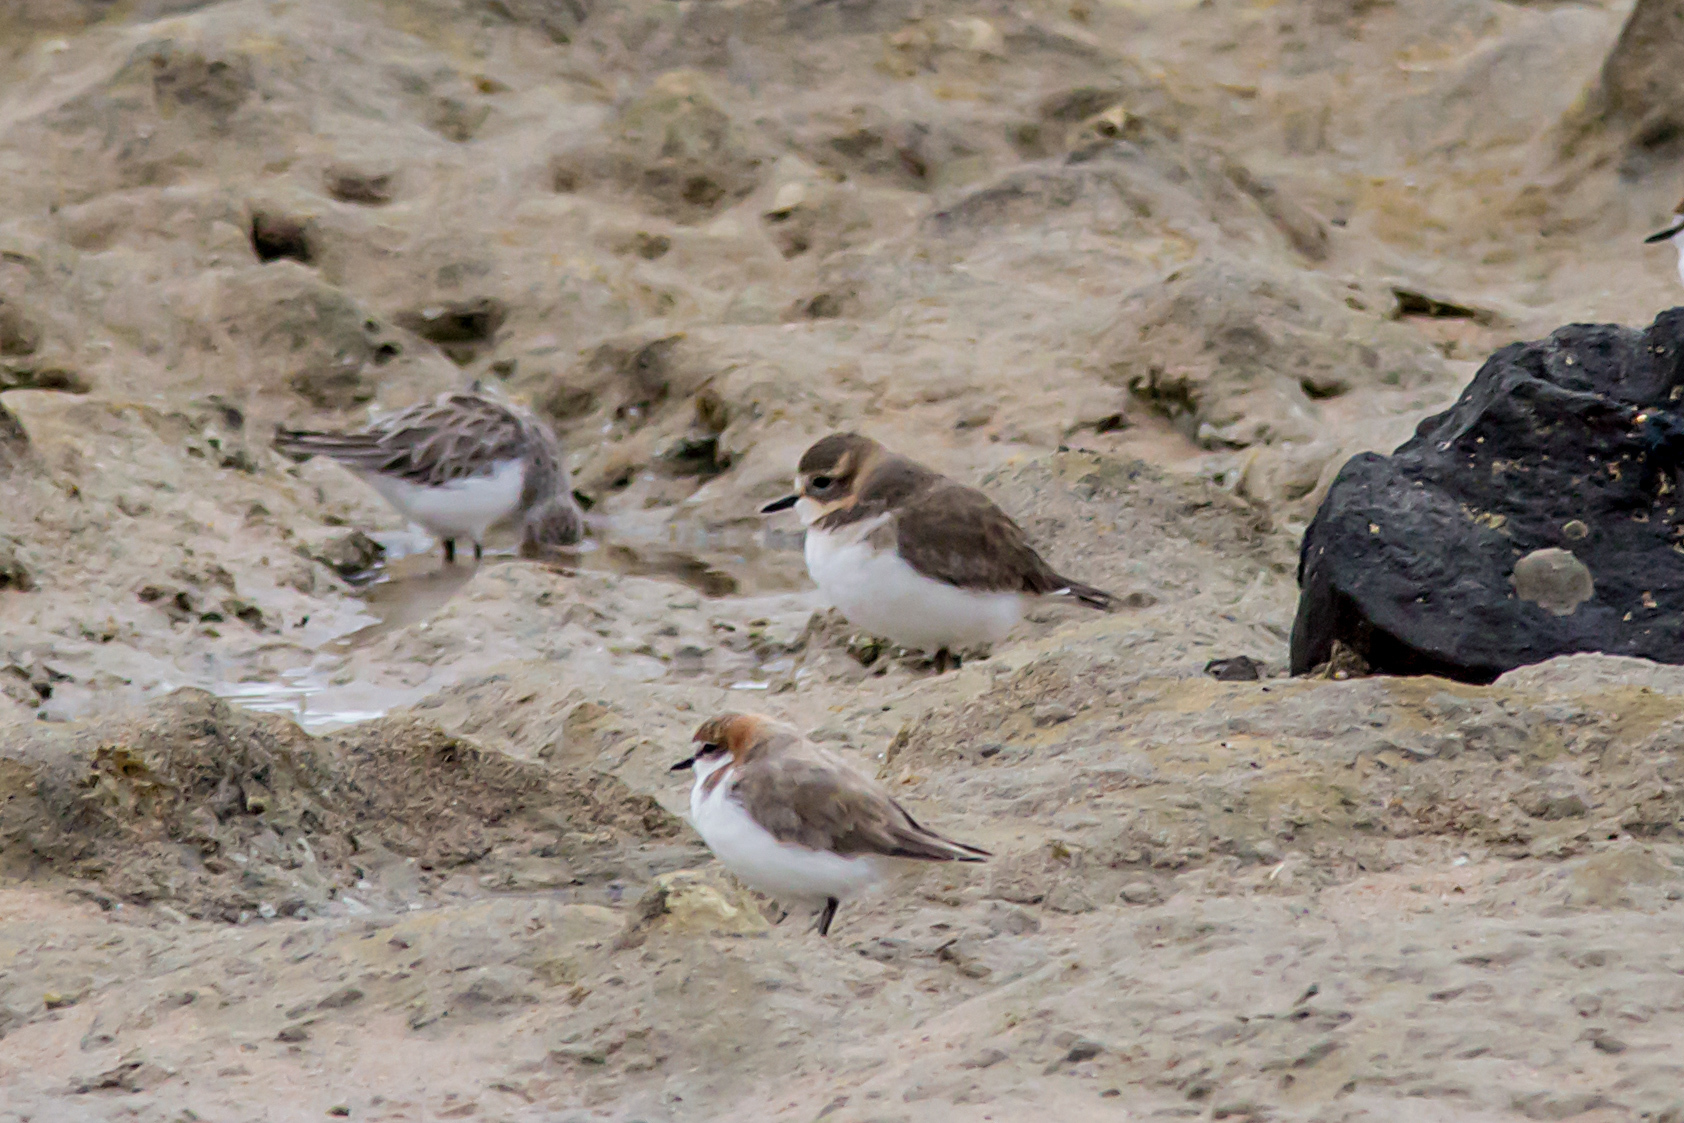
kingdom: Animalia
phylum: Chordata
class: Aves
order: Charadriiformes
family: Charadriidae
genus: Anarhynchus
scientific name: Anarhynchus
